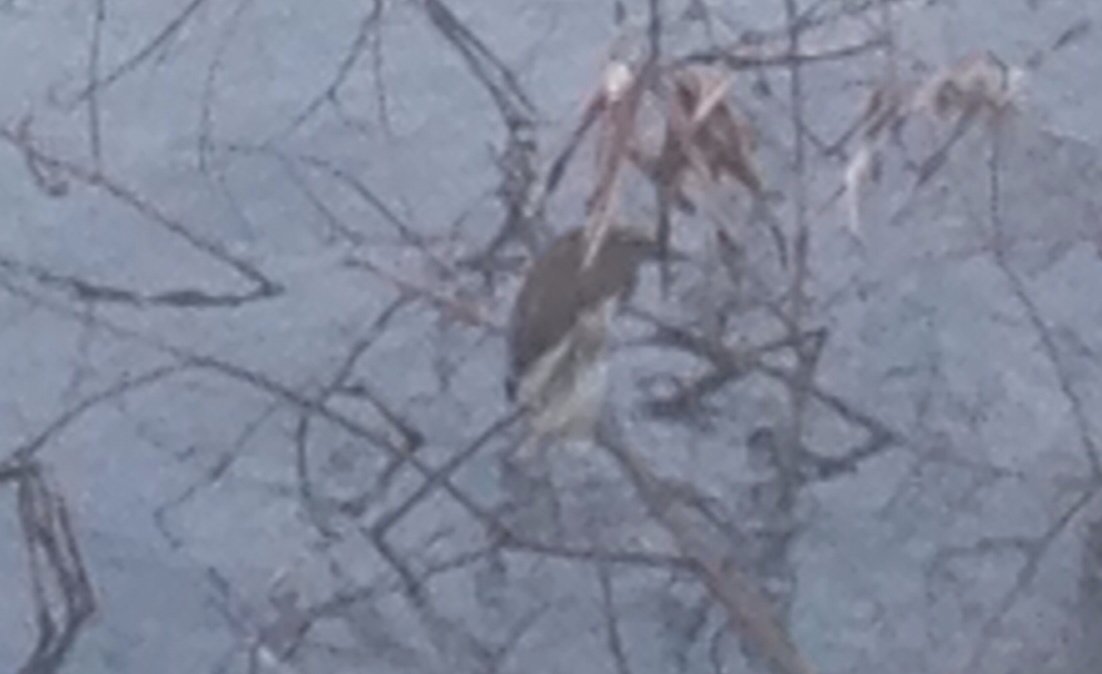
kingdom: Animalia
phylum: Chordata
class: Aves
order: Pelecaniformes
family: Ardeidae
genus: Butorides
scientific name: Butorides striata
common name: Striated heron
